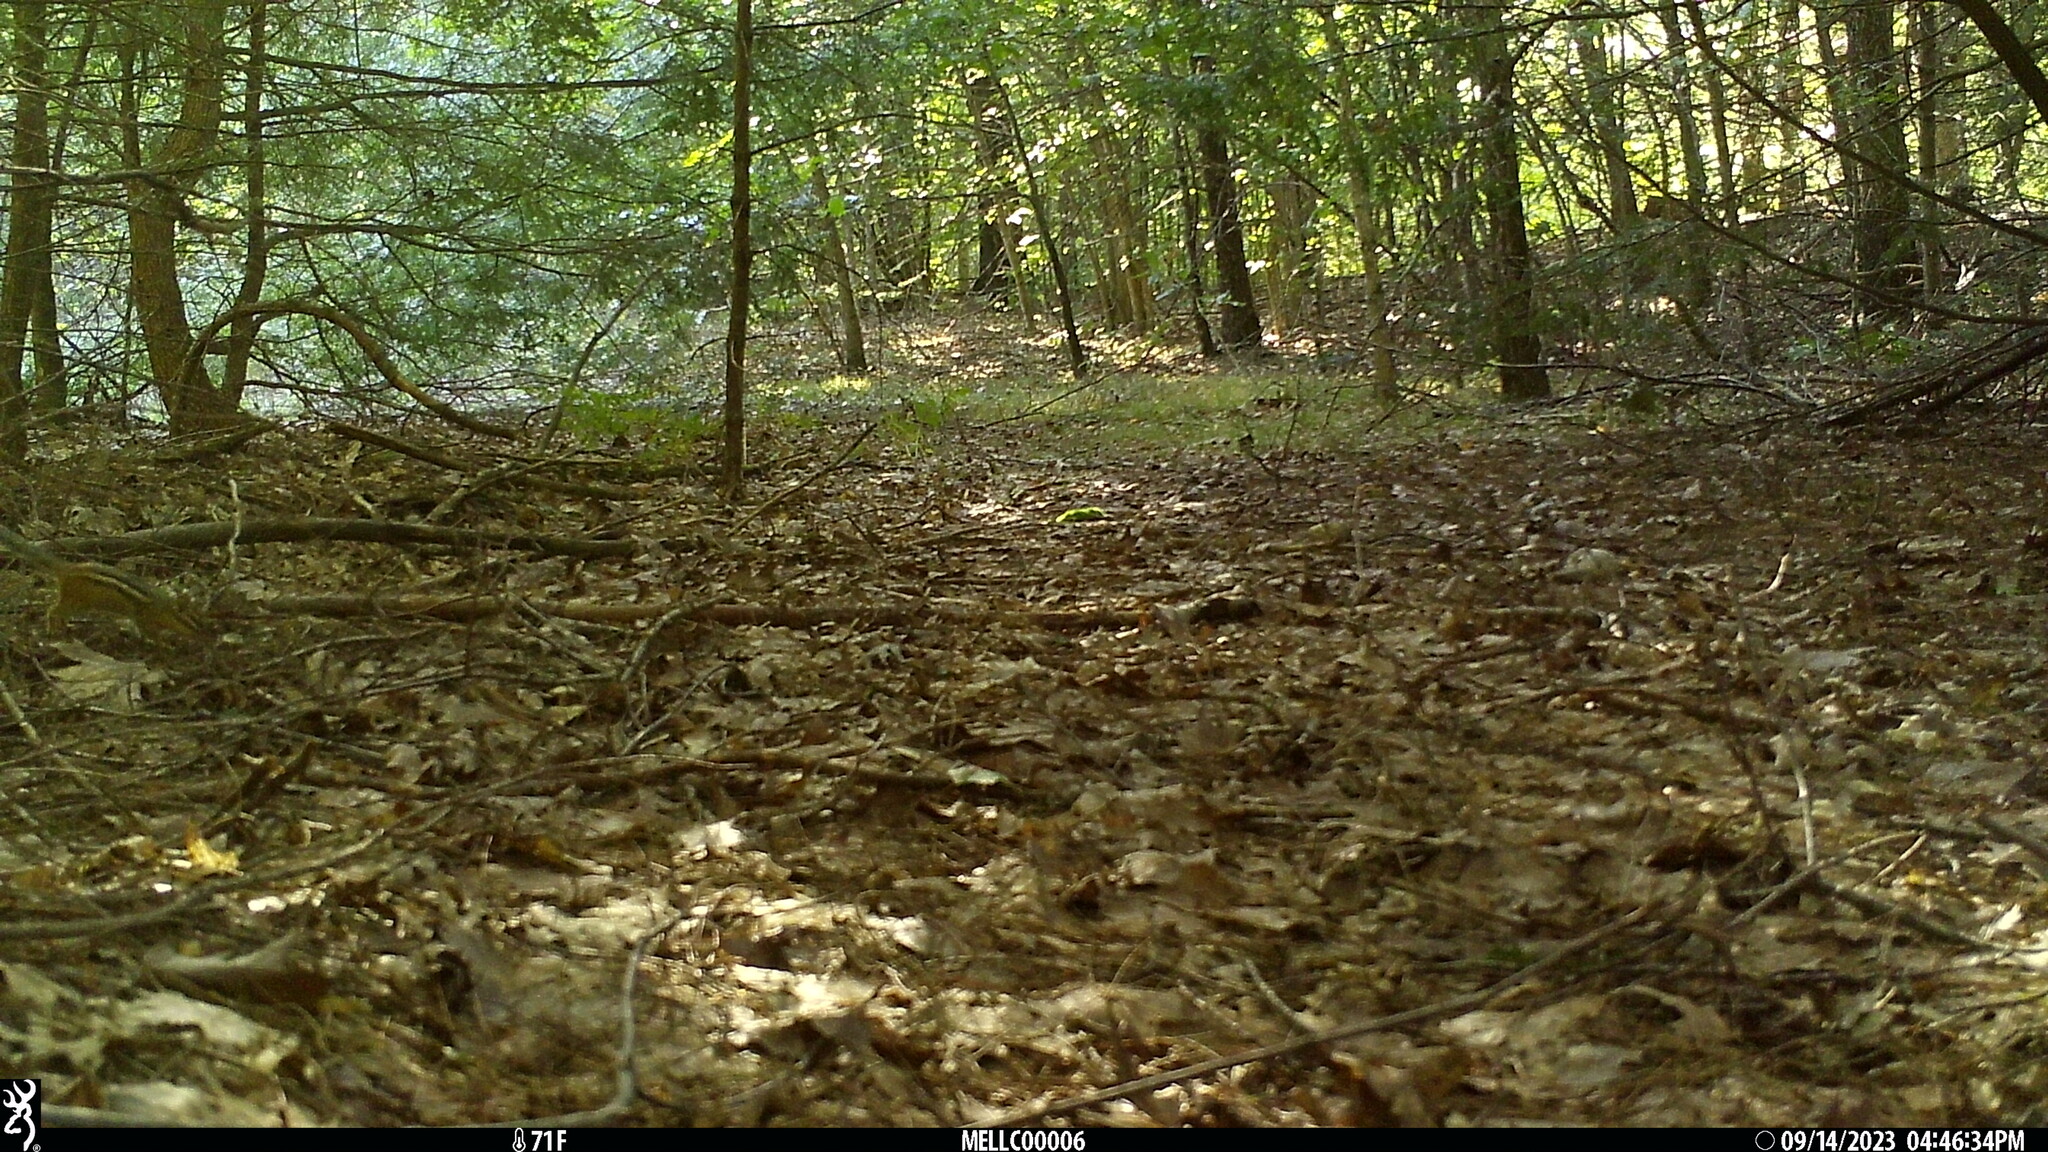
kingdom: Animalia
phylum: Chordata
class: Mammalia
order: Rodentia
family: Sciuridae
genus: Tamias
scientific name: Tamias striatus
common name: Eastern chipmunk
